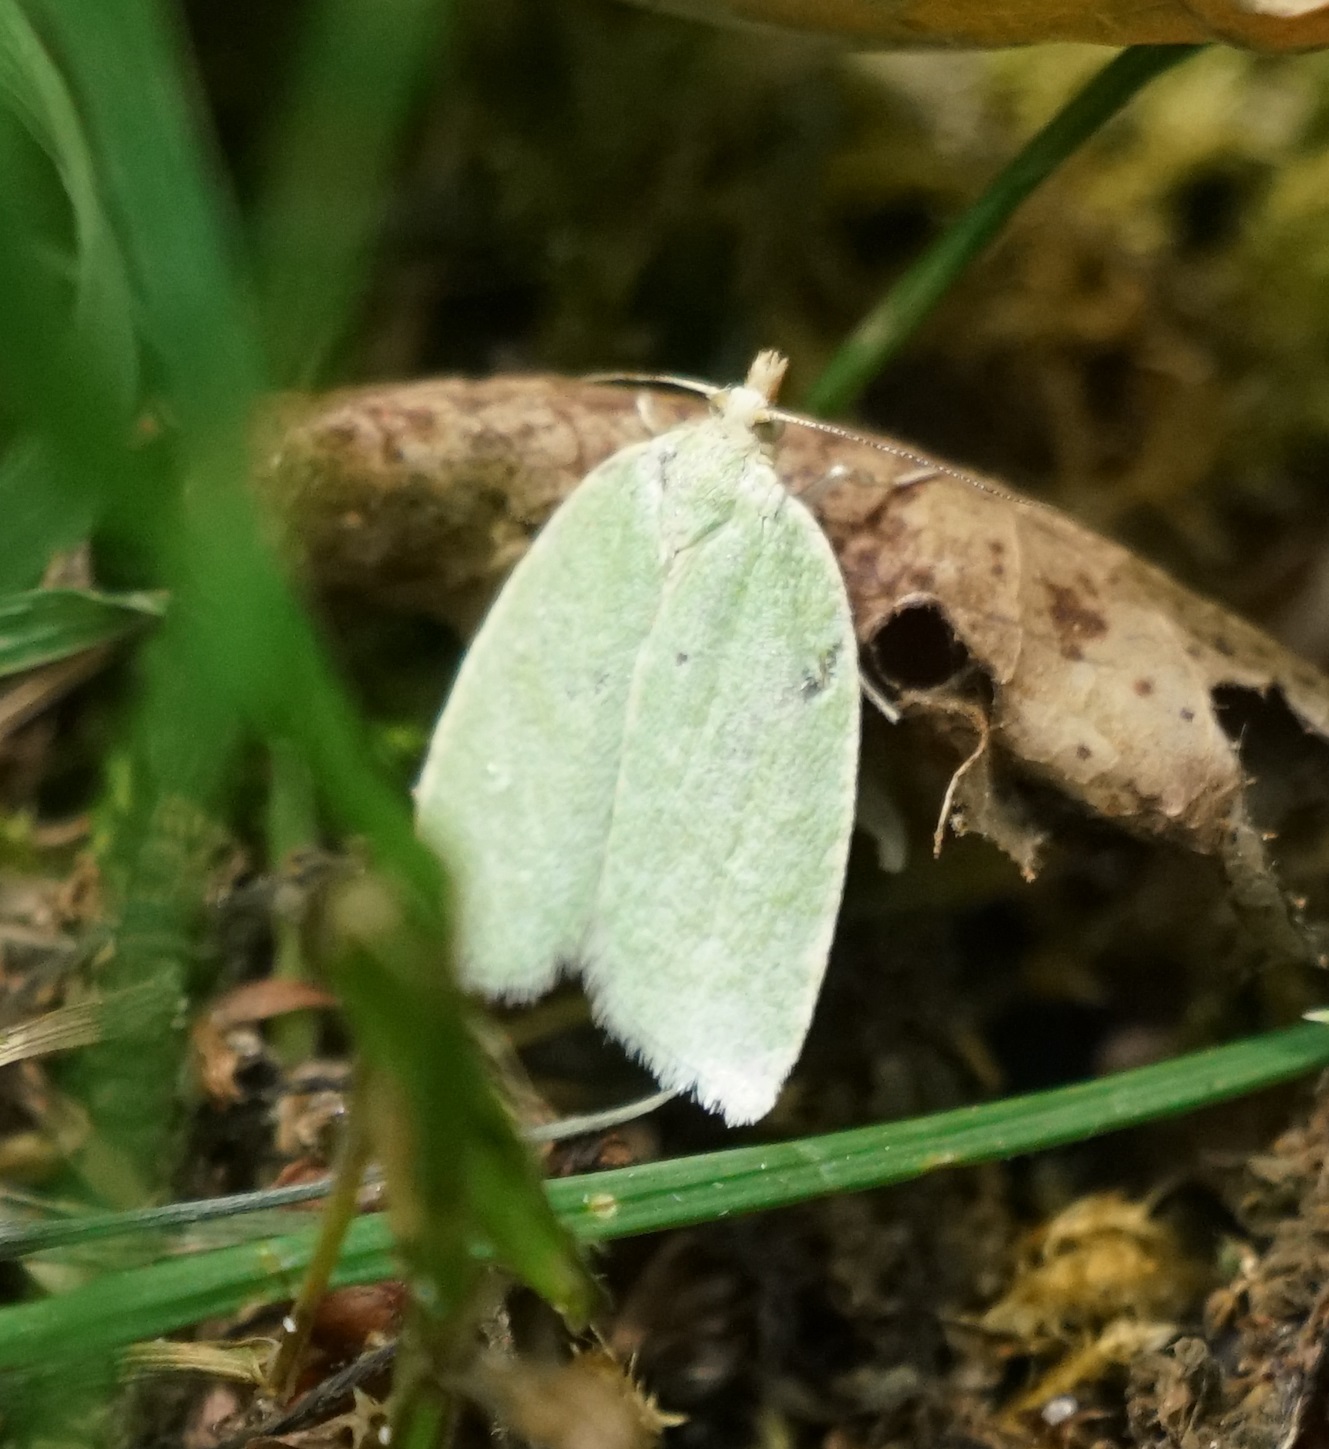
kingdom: Animalia
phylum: Arthropoda
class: Insecta
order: Lepidoptera
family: Tortricidae
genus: Tortrix
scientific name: Tortrix viridana
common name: Green oak tortrix
